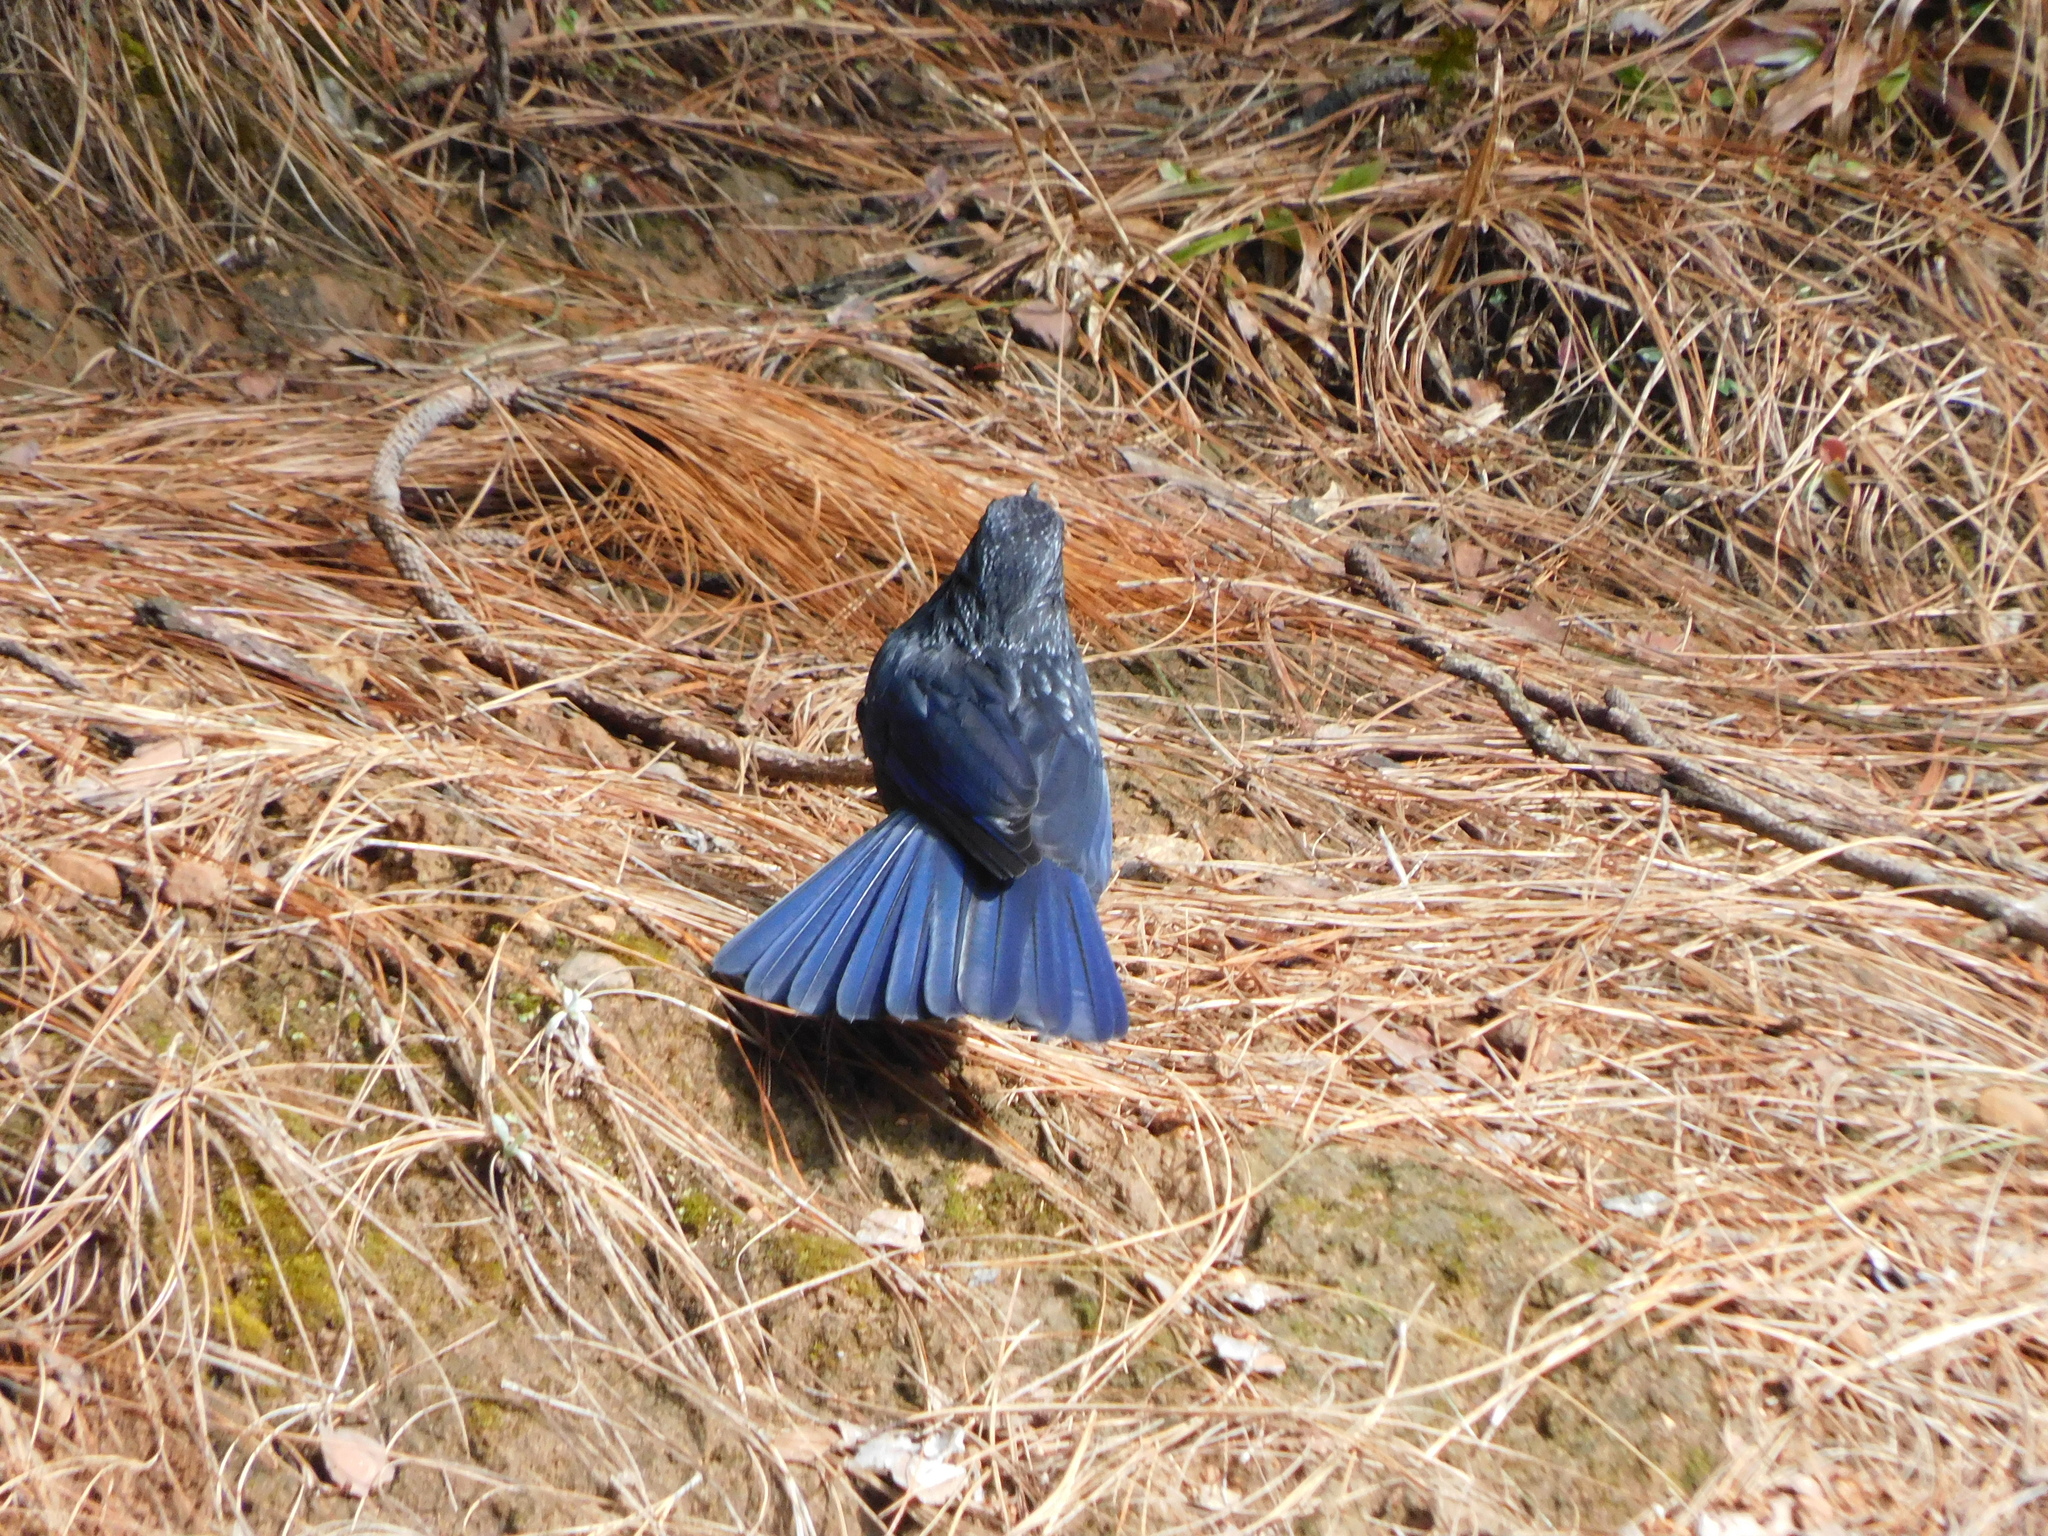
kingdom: Animalia
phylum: Chordata
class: Aves
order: Passeriformes
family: Muscicapidae
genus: Myophonus
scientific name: Myophonus caeruleus
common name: Blue whistling-thrush
